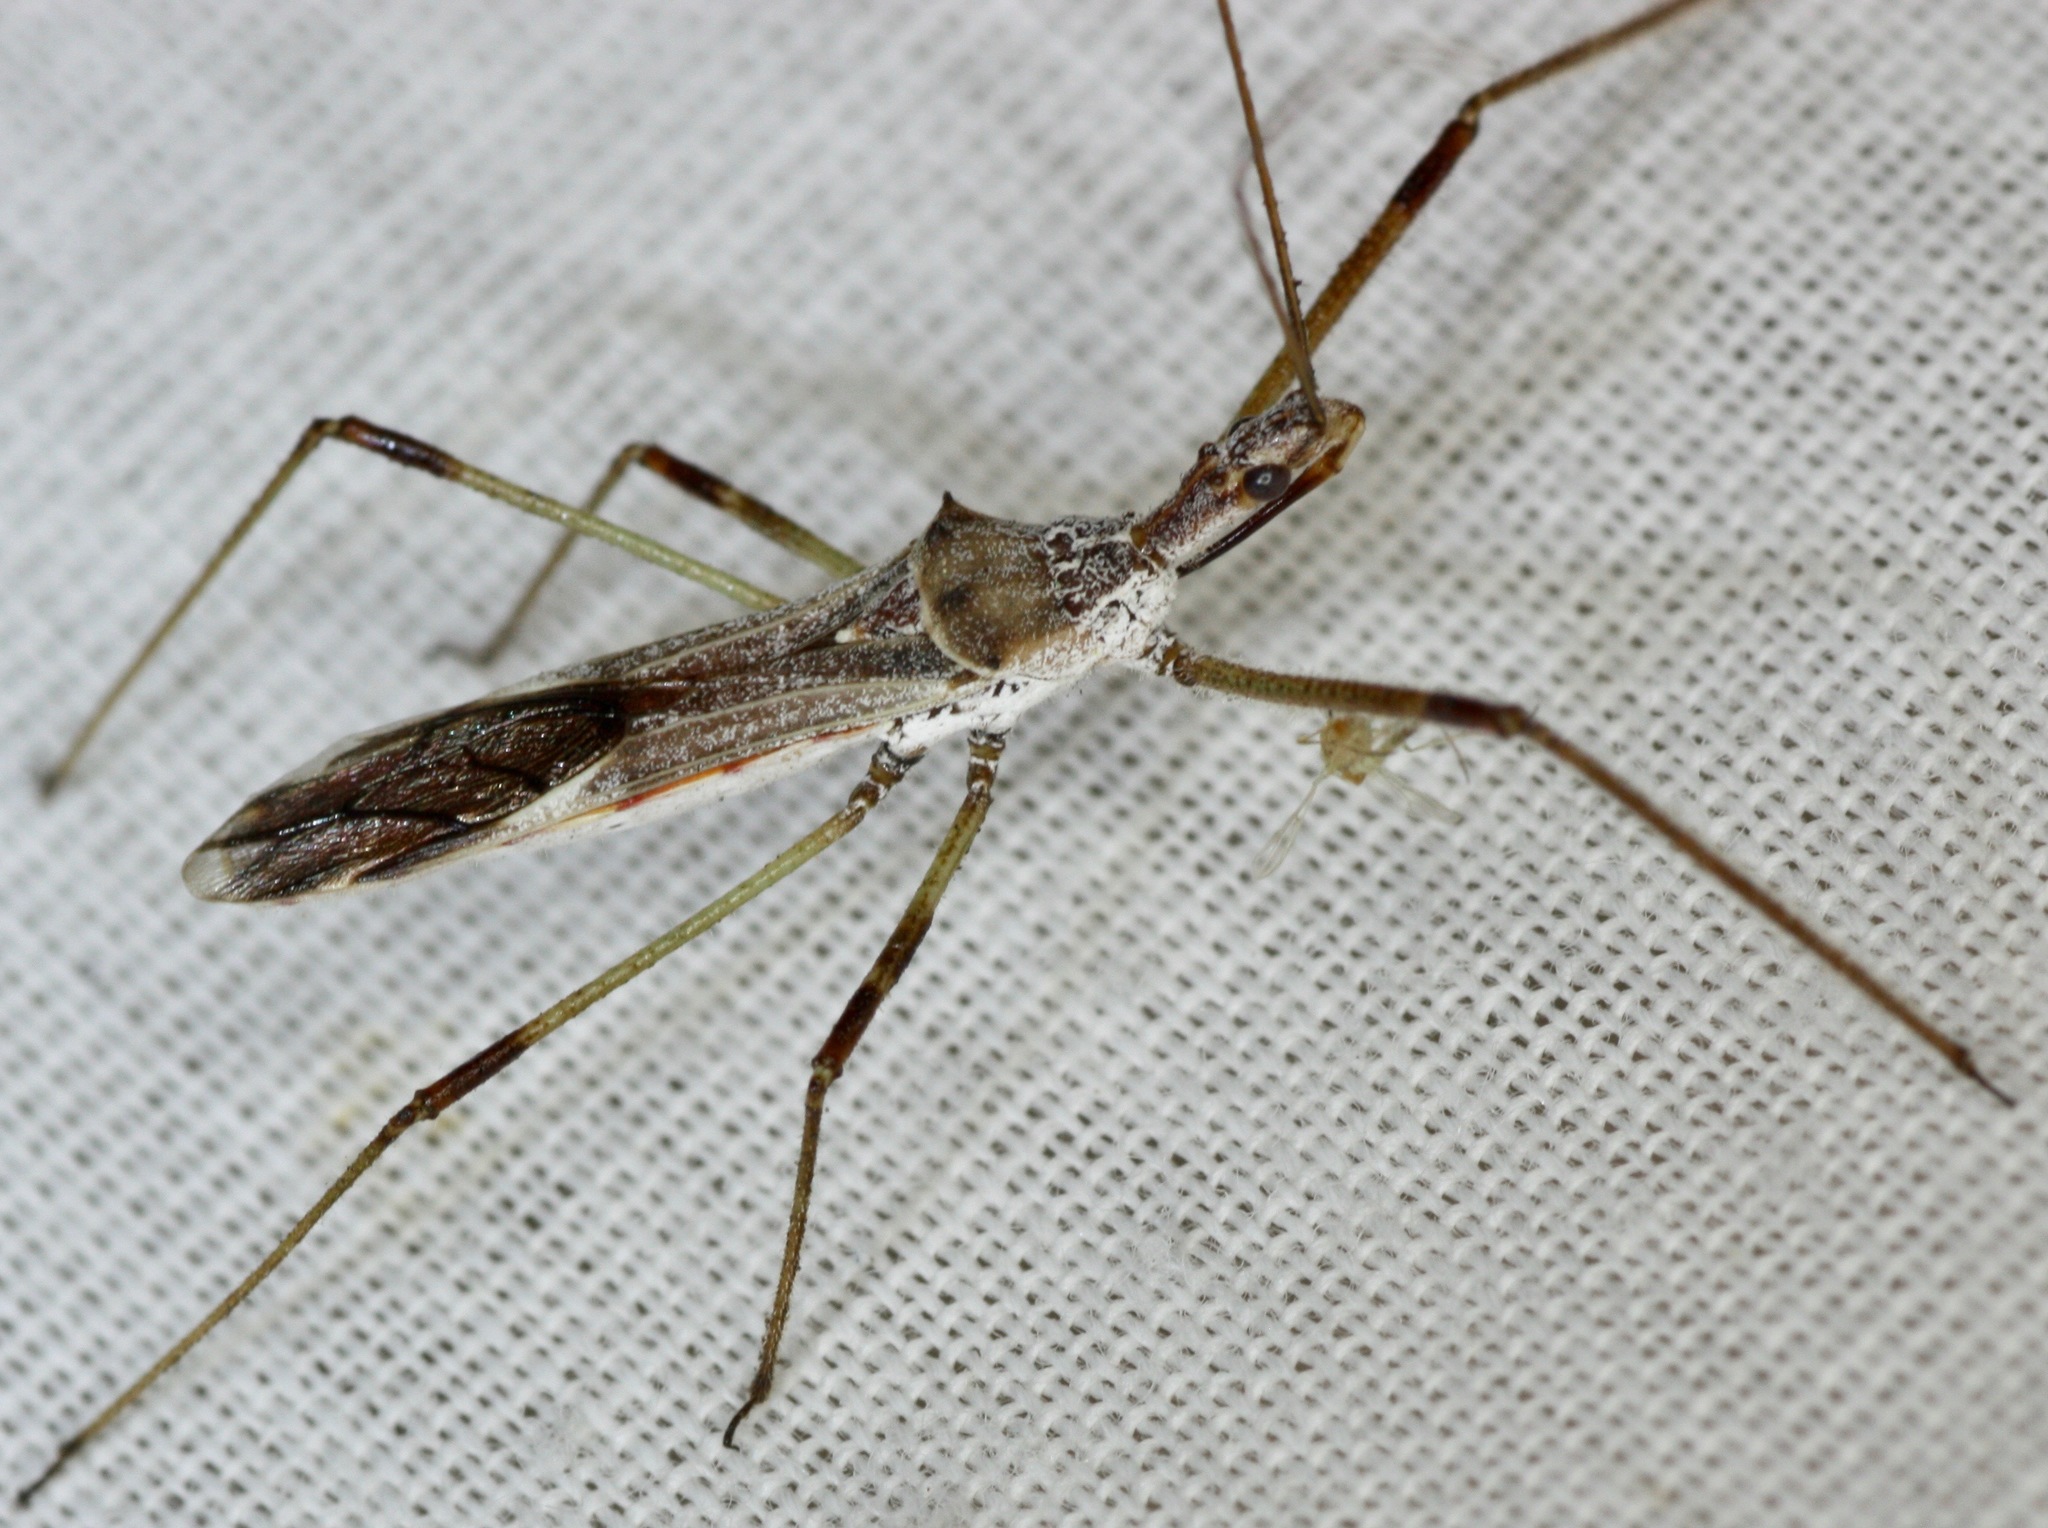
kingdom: Animalia
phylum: Arthropoda
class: Insecta
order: Hemiptera
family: Reduviidae
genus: Zelus
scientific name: Zelus tetracanthus
